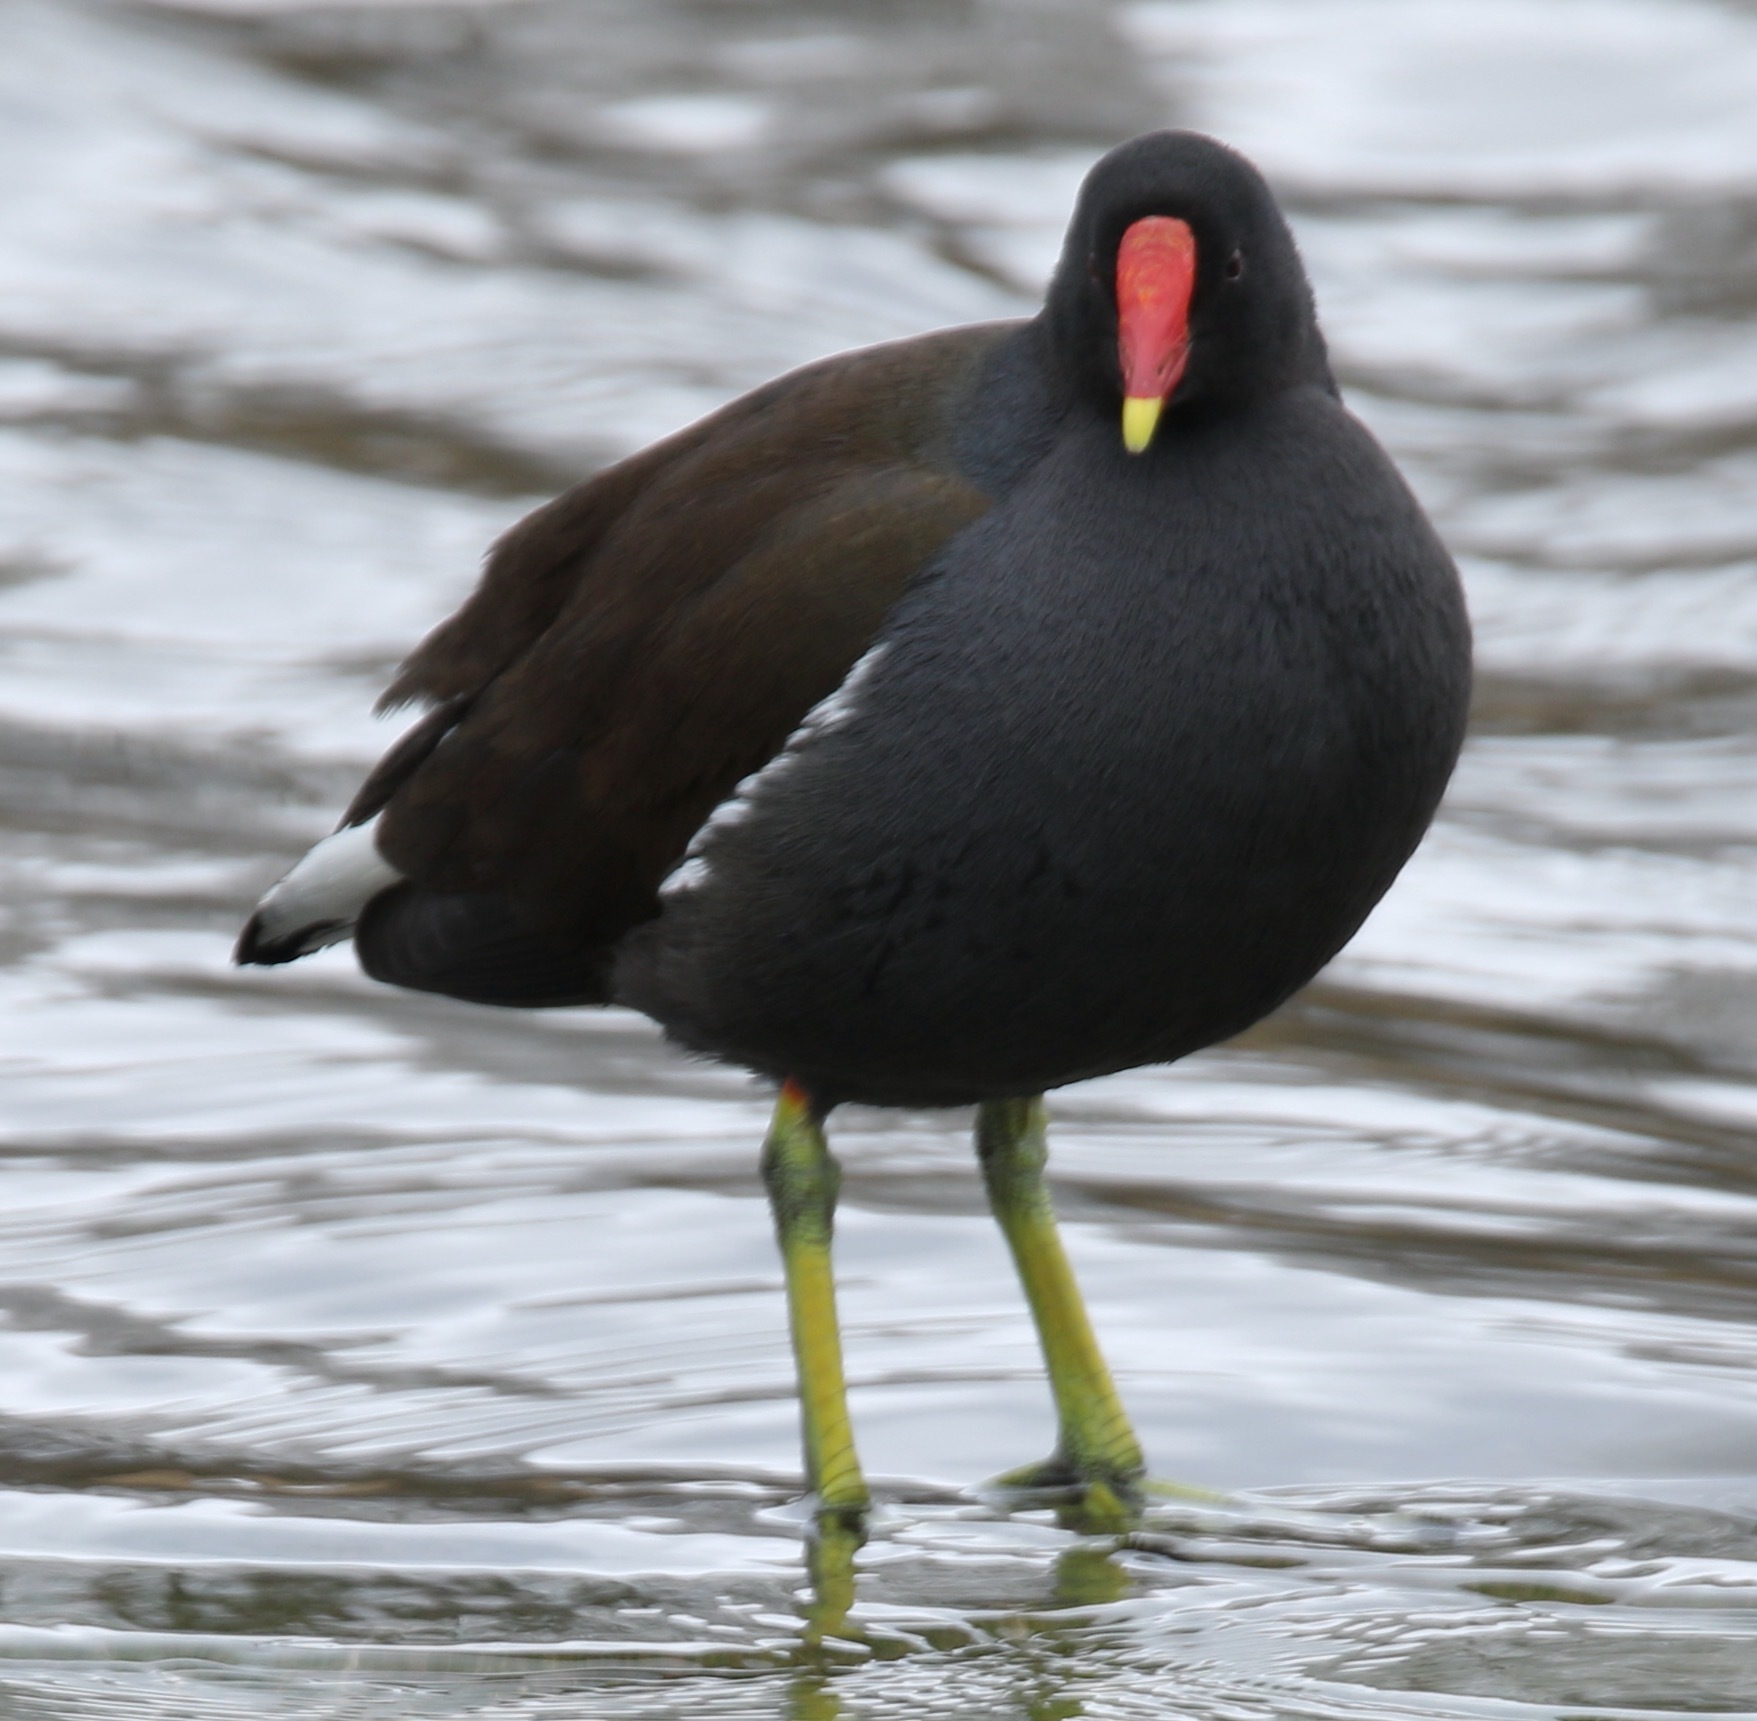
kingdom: Animalia
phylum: Chordata
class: Aves
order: Gruiformes
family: Rallidae
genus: Gallinula
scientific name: Gallinula chloropus
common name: Common moorhen
